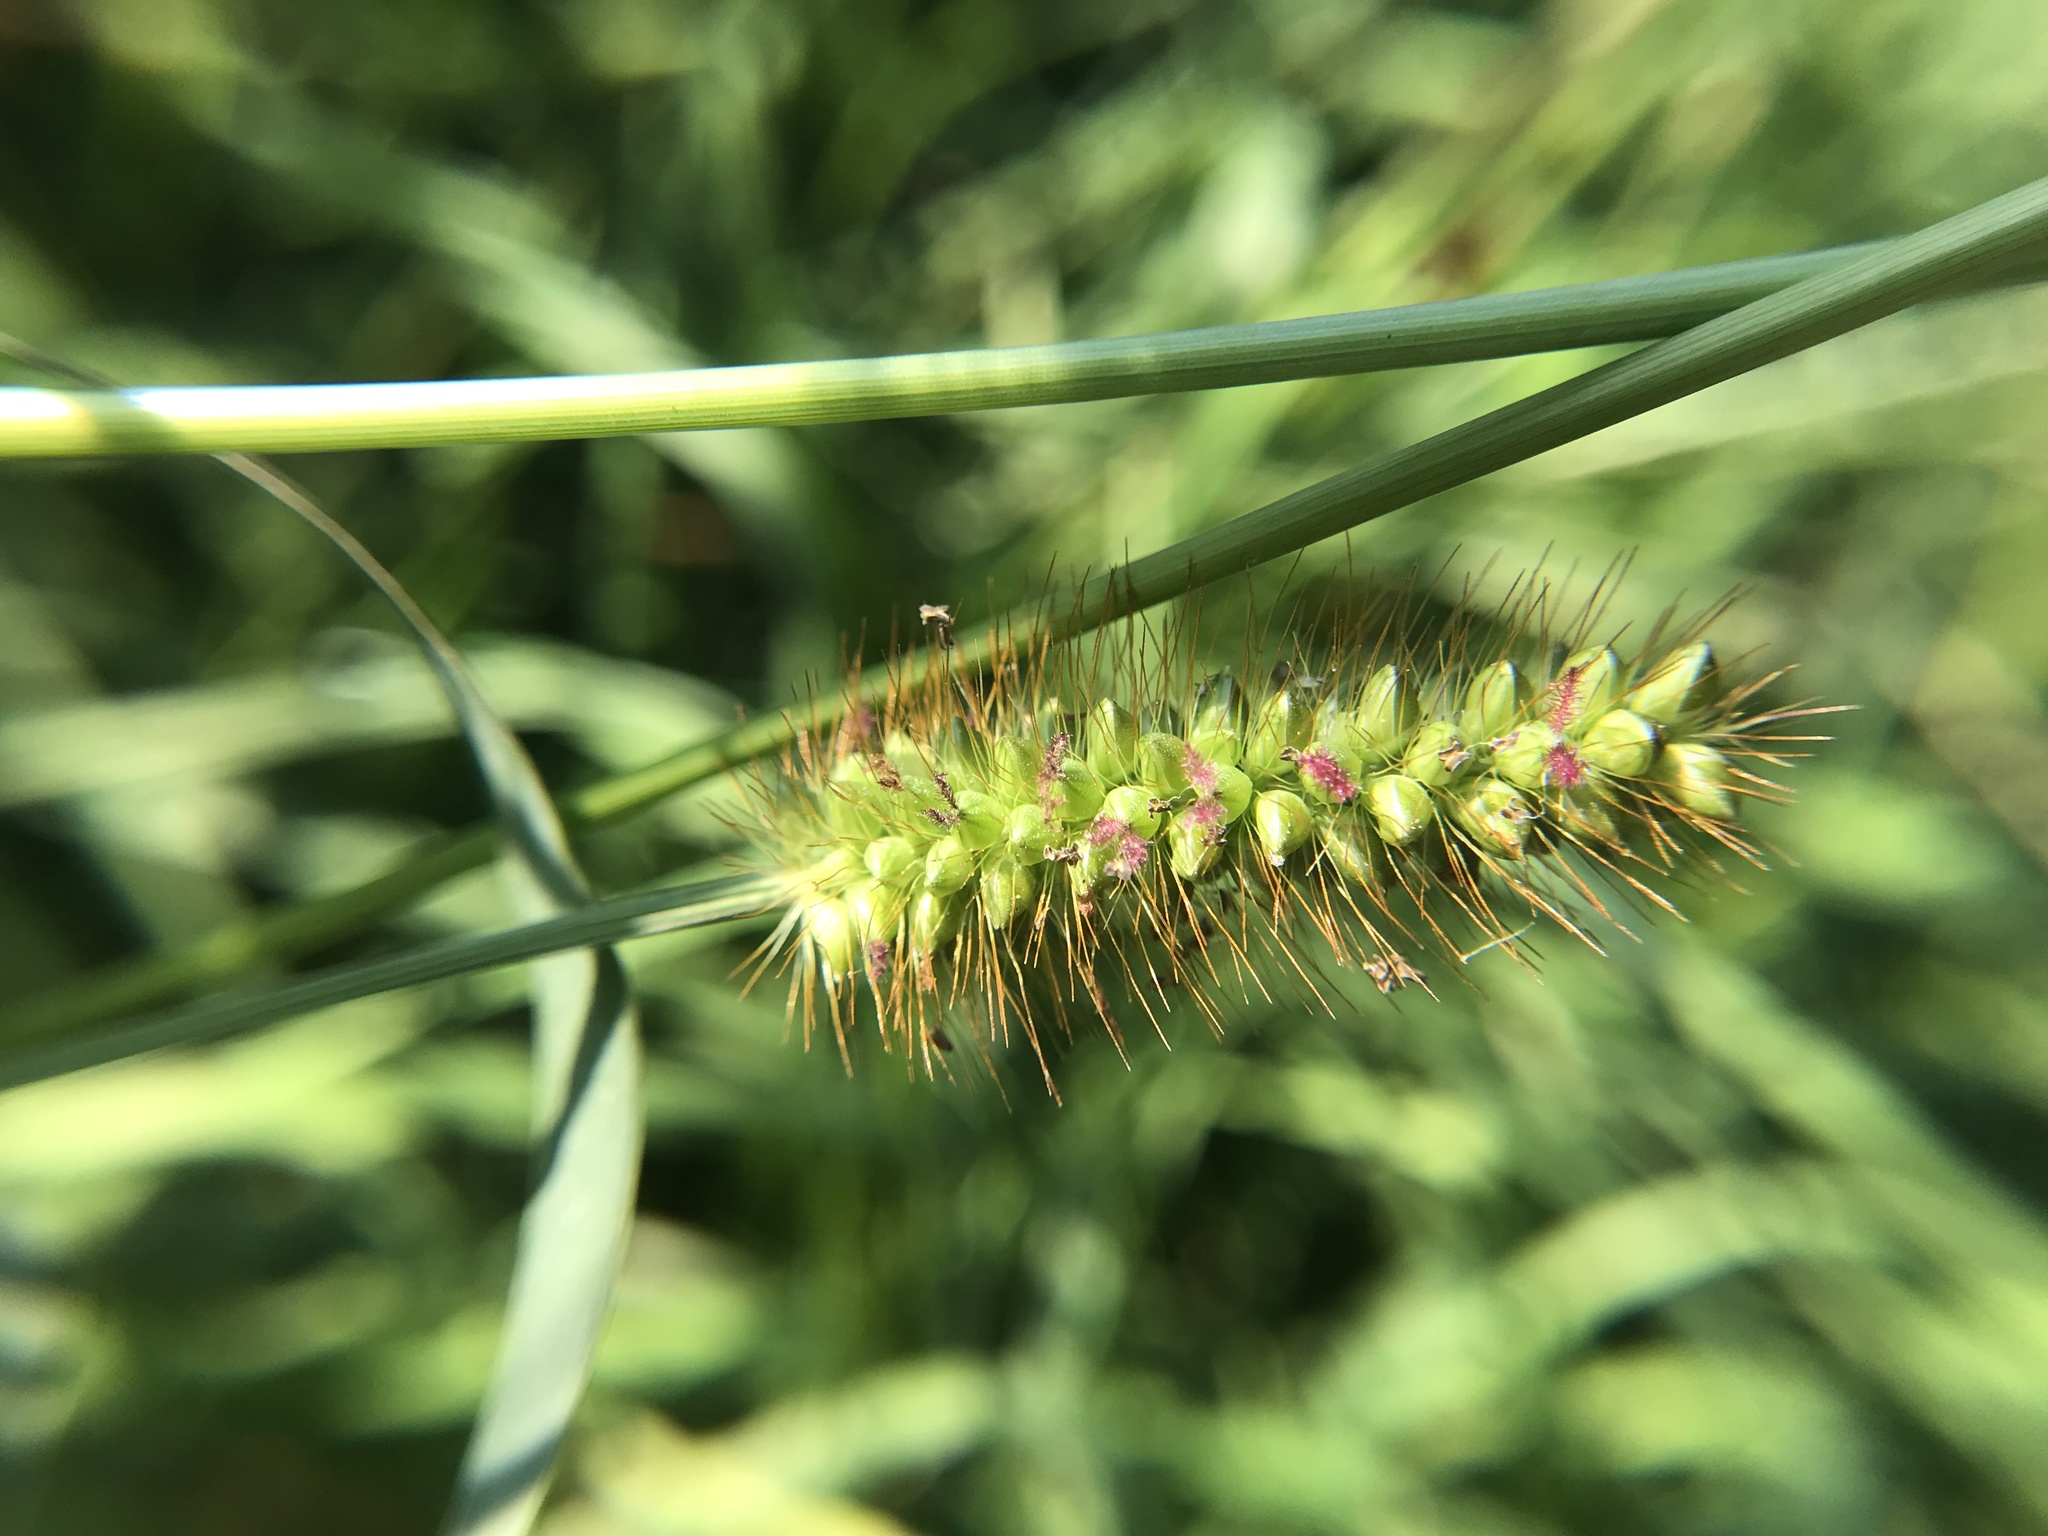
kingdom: Plantae
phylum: Tracheophyta
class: Liliopsida
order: Poales
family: Poaceae
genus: Setaria
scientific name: Setaria pumila
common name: Yellow bristle-grass
